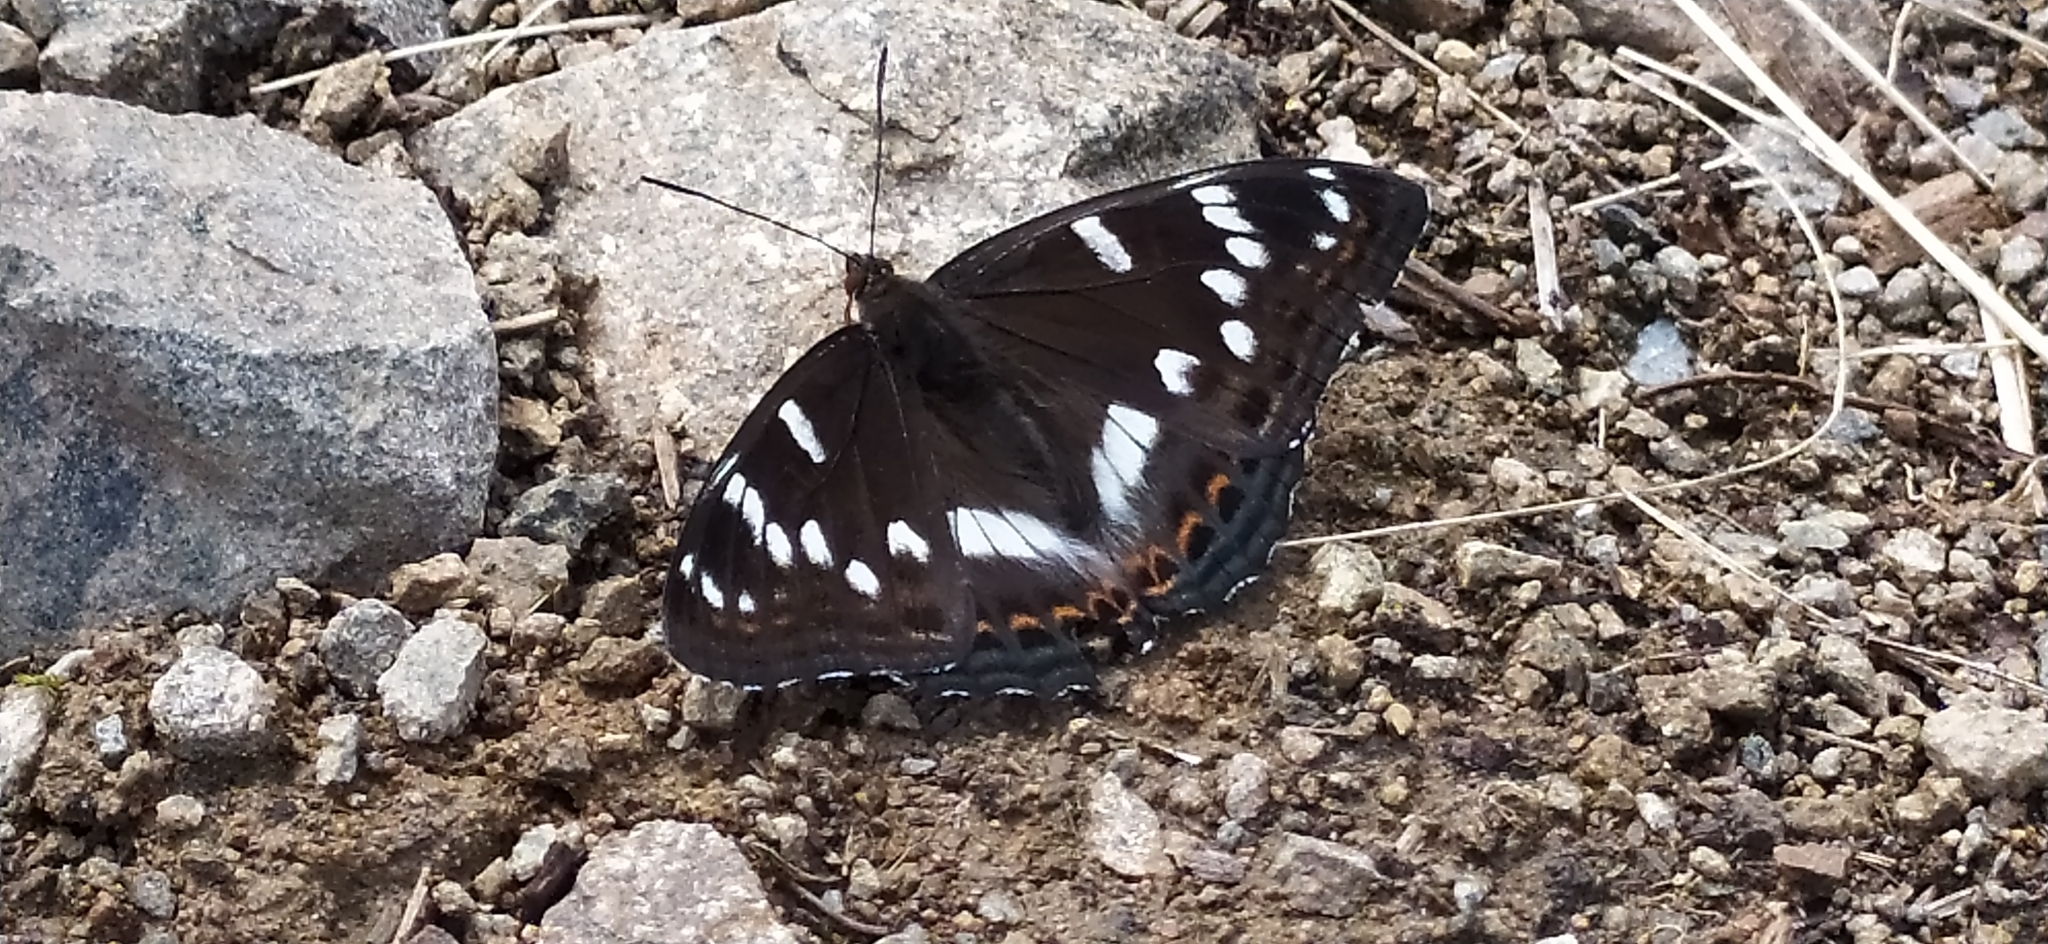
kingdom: Animalia
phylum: Arthropoda
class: Insecta
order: Lepidoptera
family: Nymphalidae
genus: Limenitis
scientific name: Limenitis populi
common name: Poplar admiral
